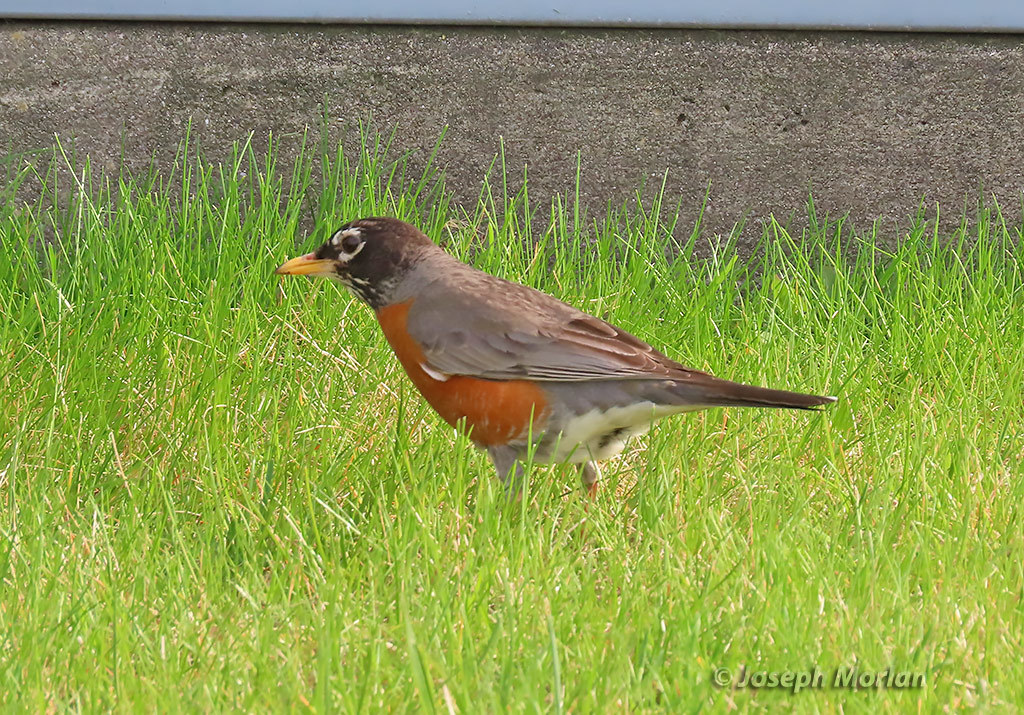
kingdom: Animalia
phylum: Chordata
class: Aves
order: Passeriformes
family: Turdidae
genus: Turdus
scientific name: Turdus migratorius
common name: American robin
